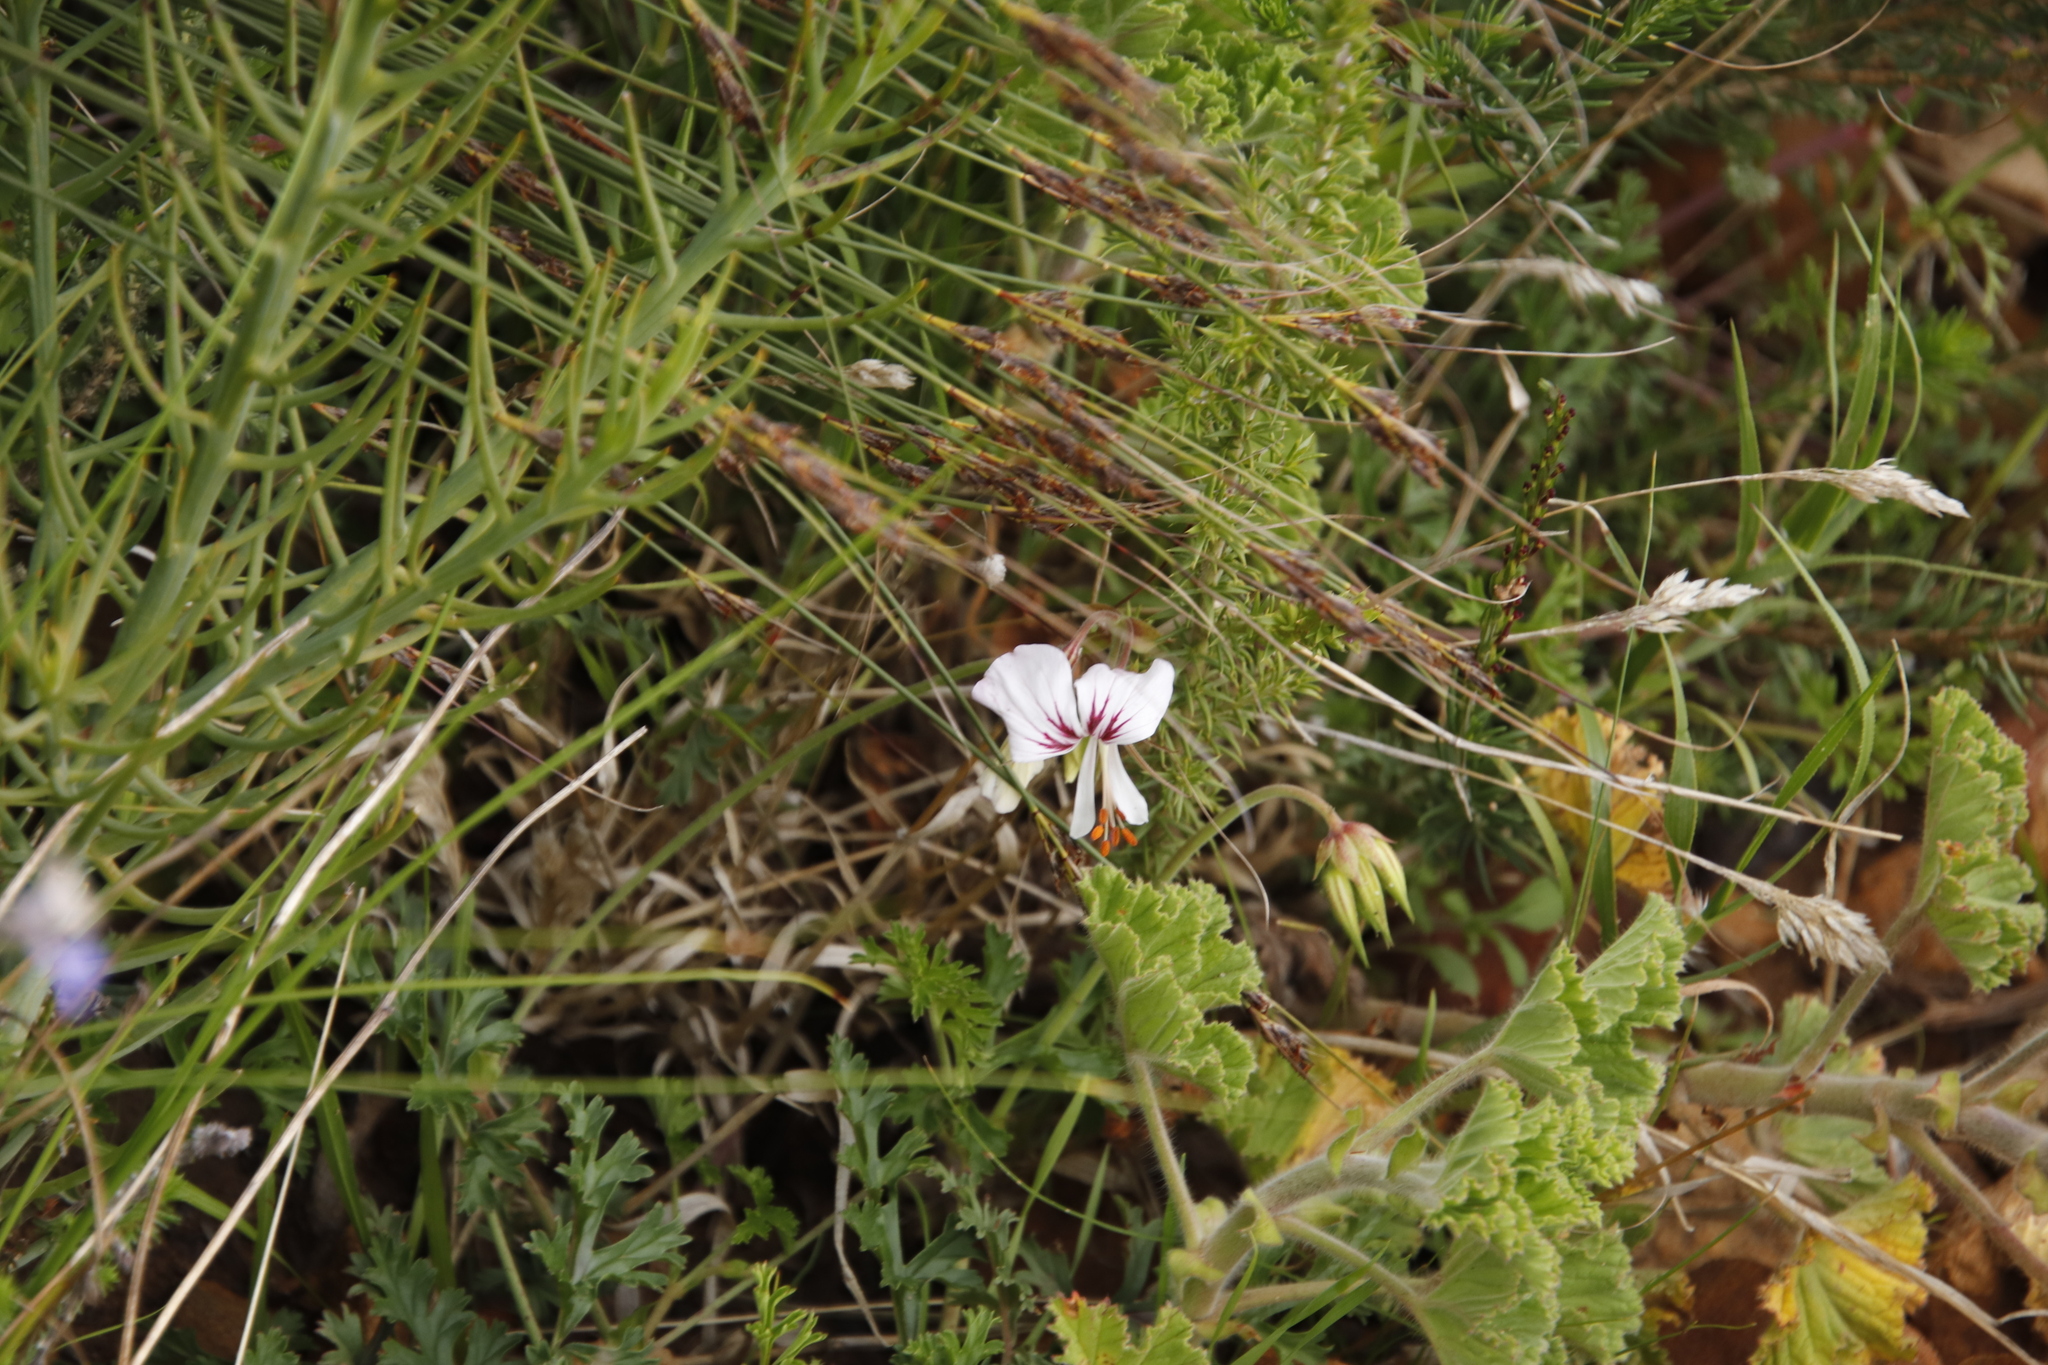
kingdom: Plantae
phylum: Tracheophyta
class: Magnoliopsida
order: Geraniales
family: Geraniaceae
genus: Pelargonium
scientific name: Pelargonium myrrhifolium
